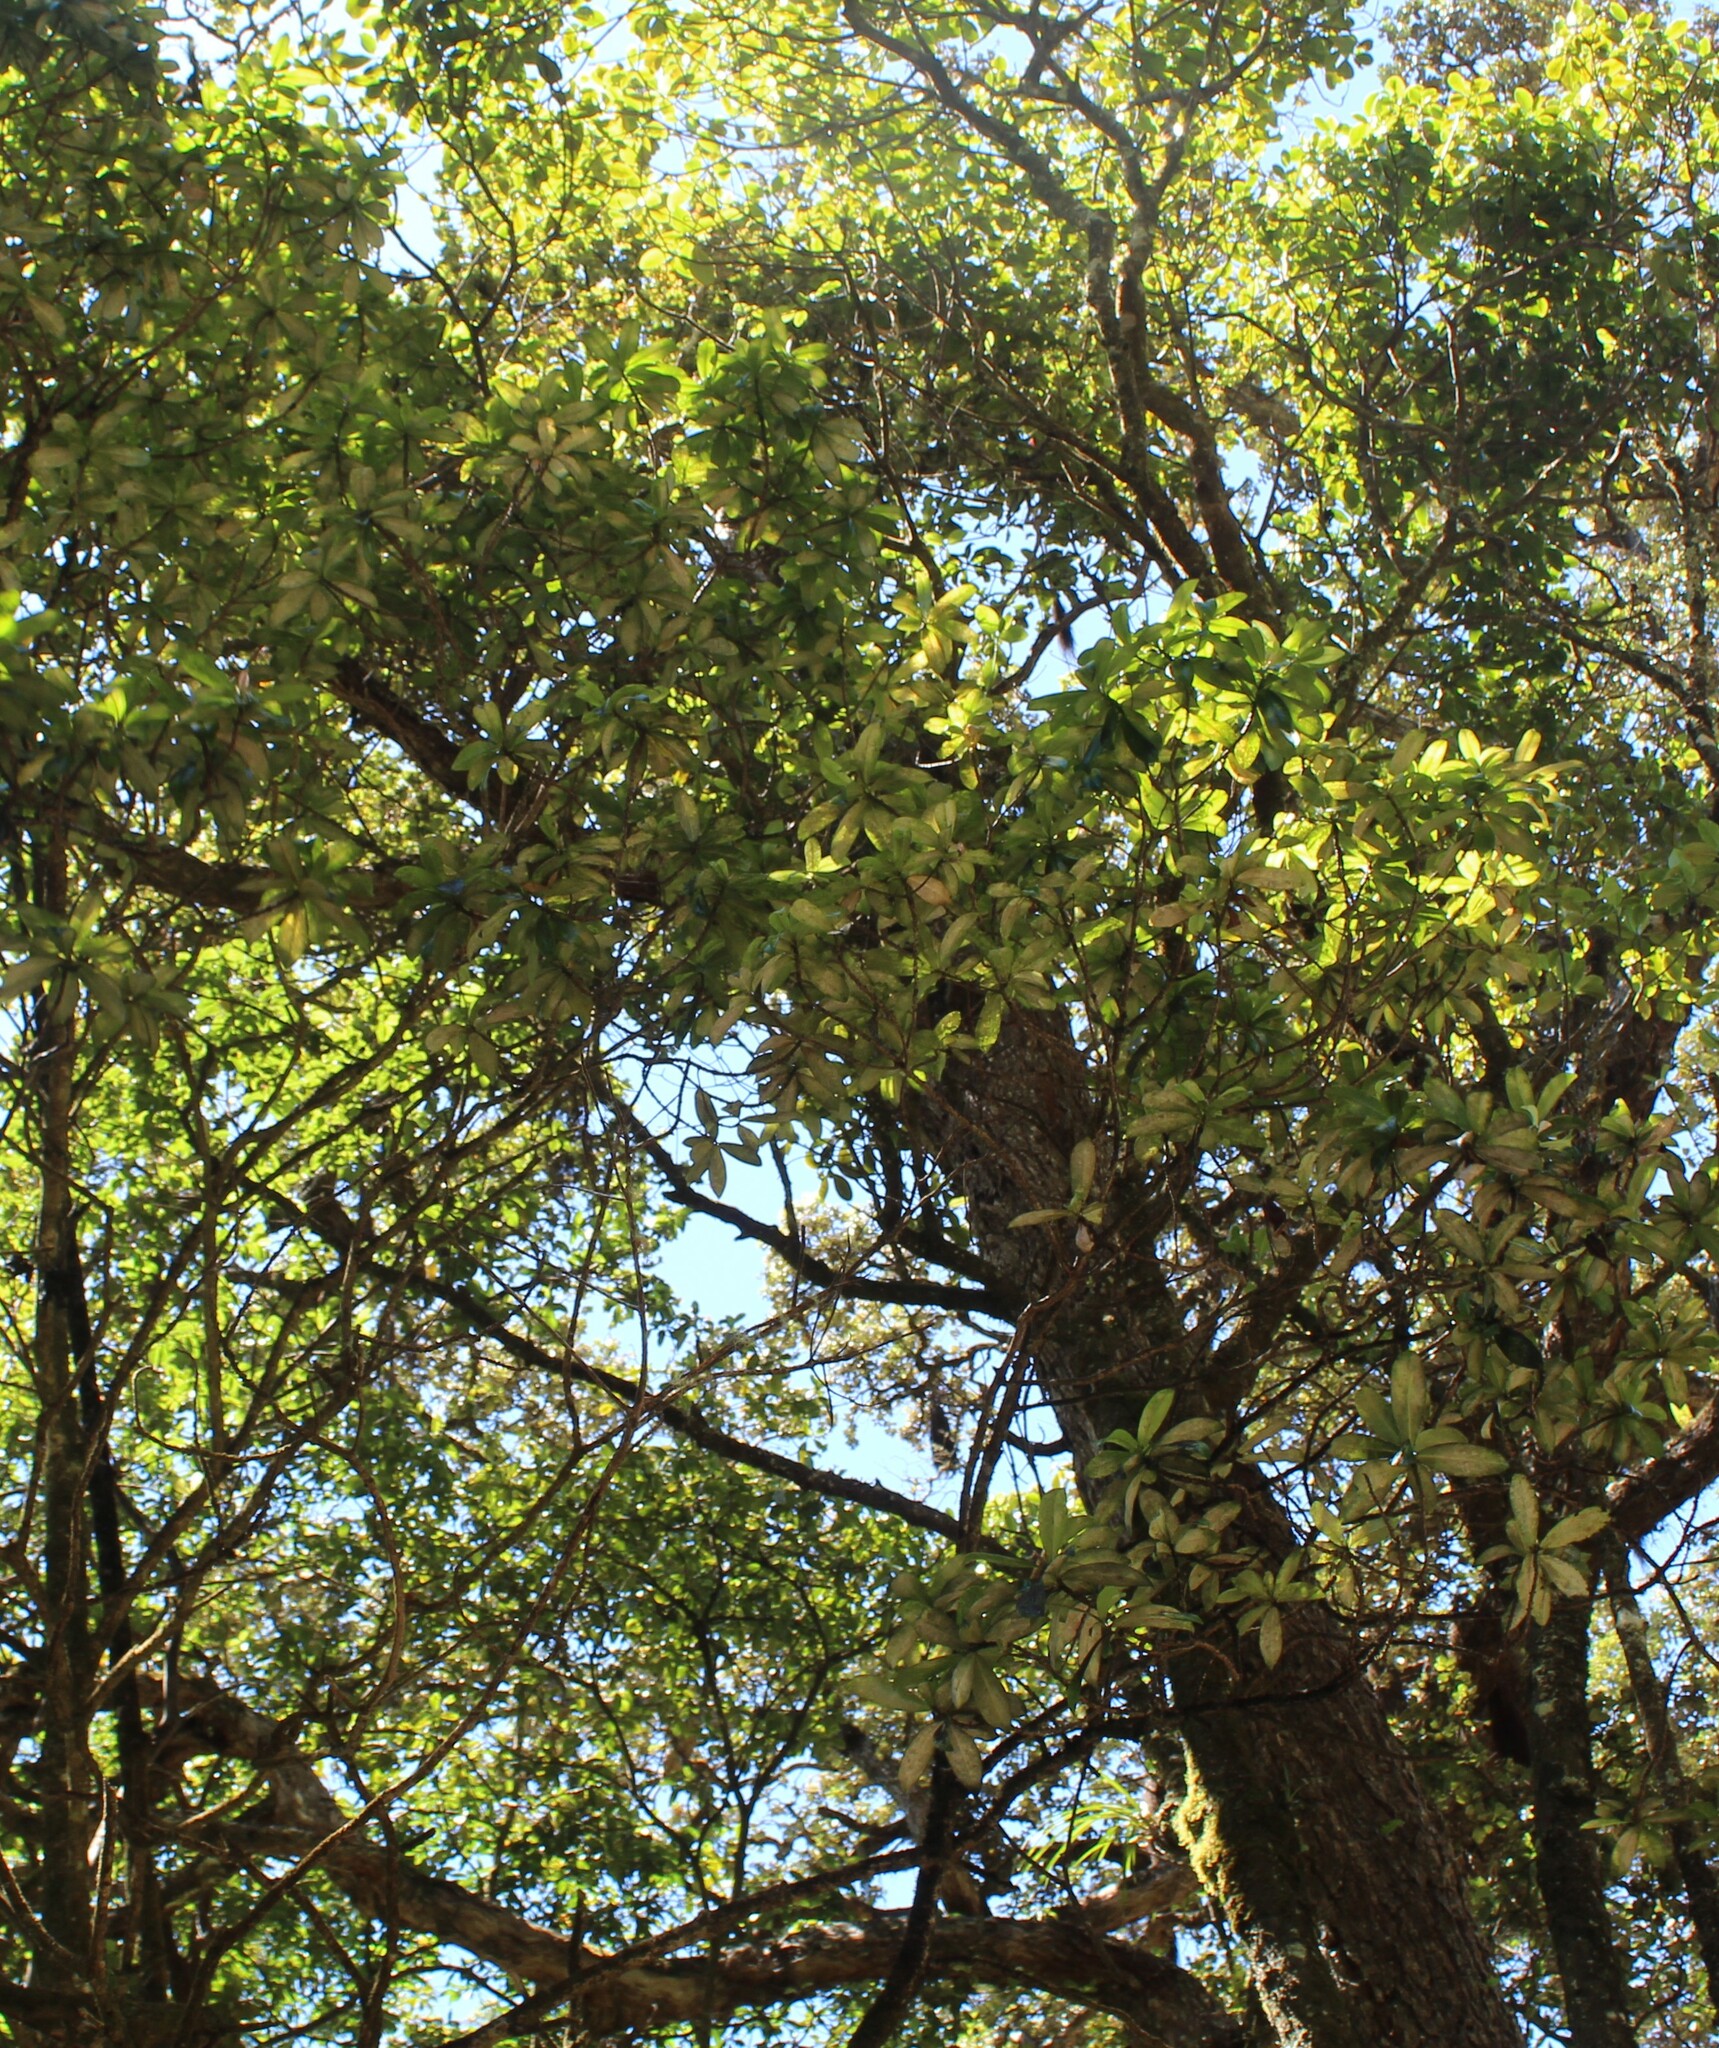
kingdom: Plantae
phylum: Tracheophyta
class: Magnoliopsida
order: Ericales
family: Primulaceae
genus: Myrsine
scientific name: Myrsine lessertiana
